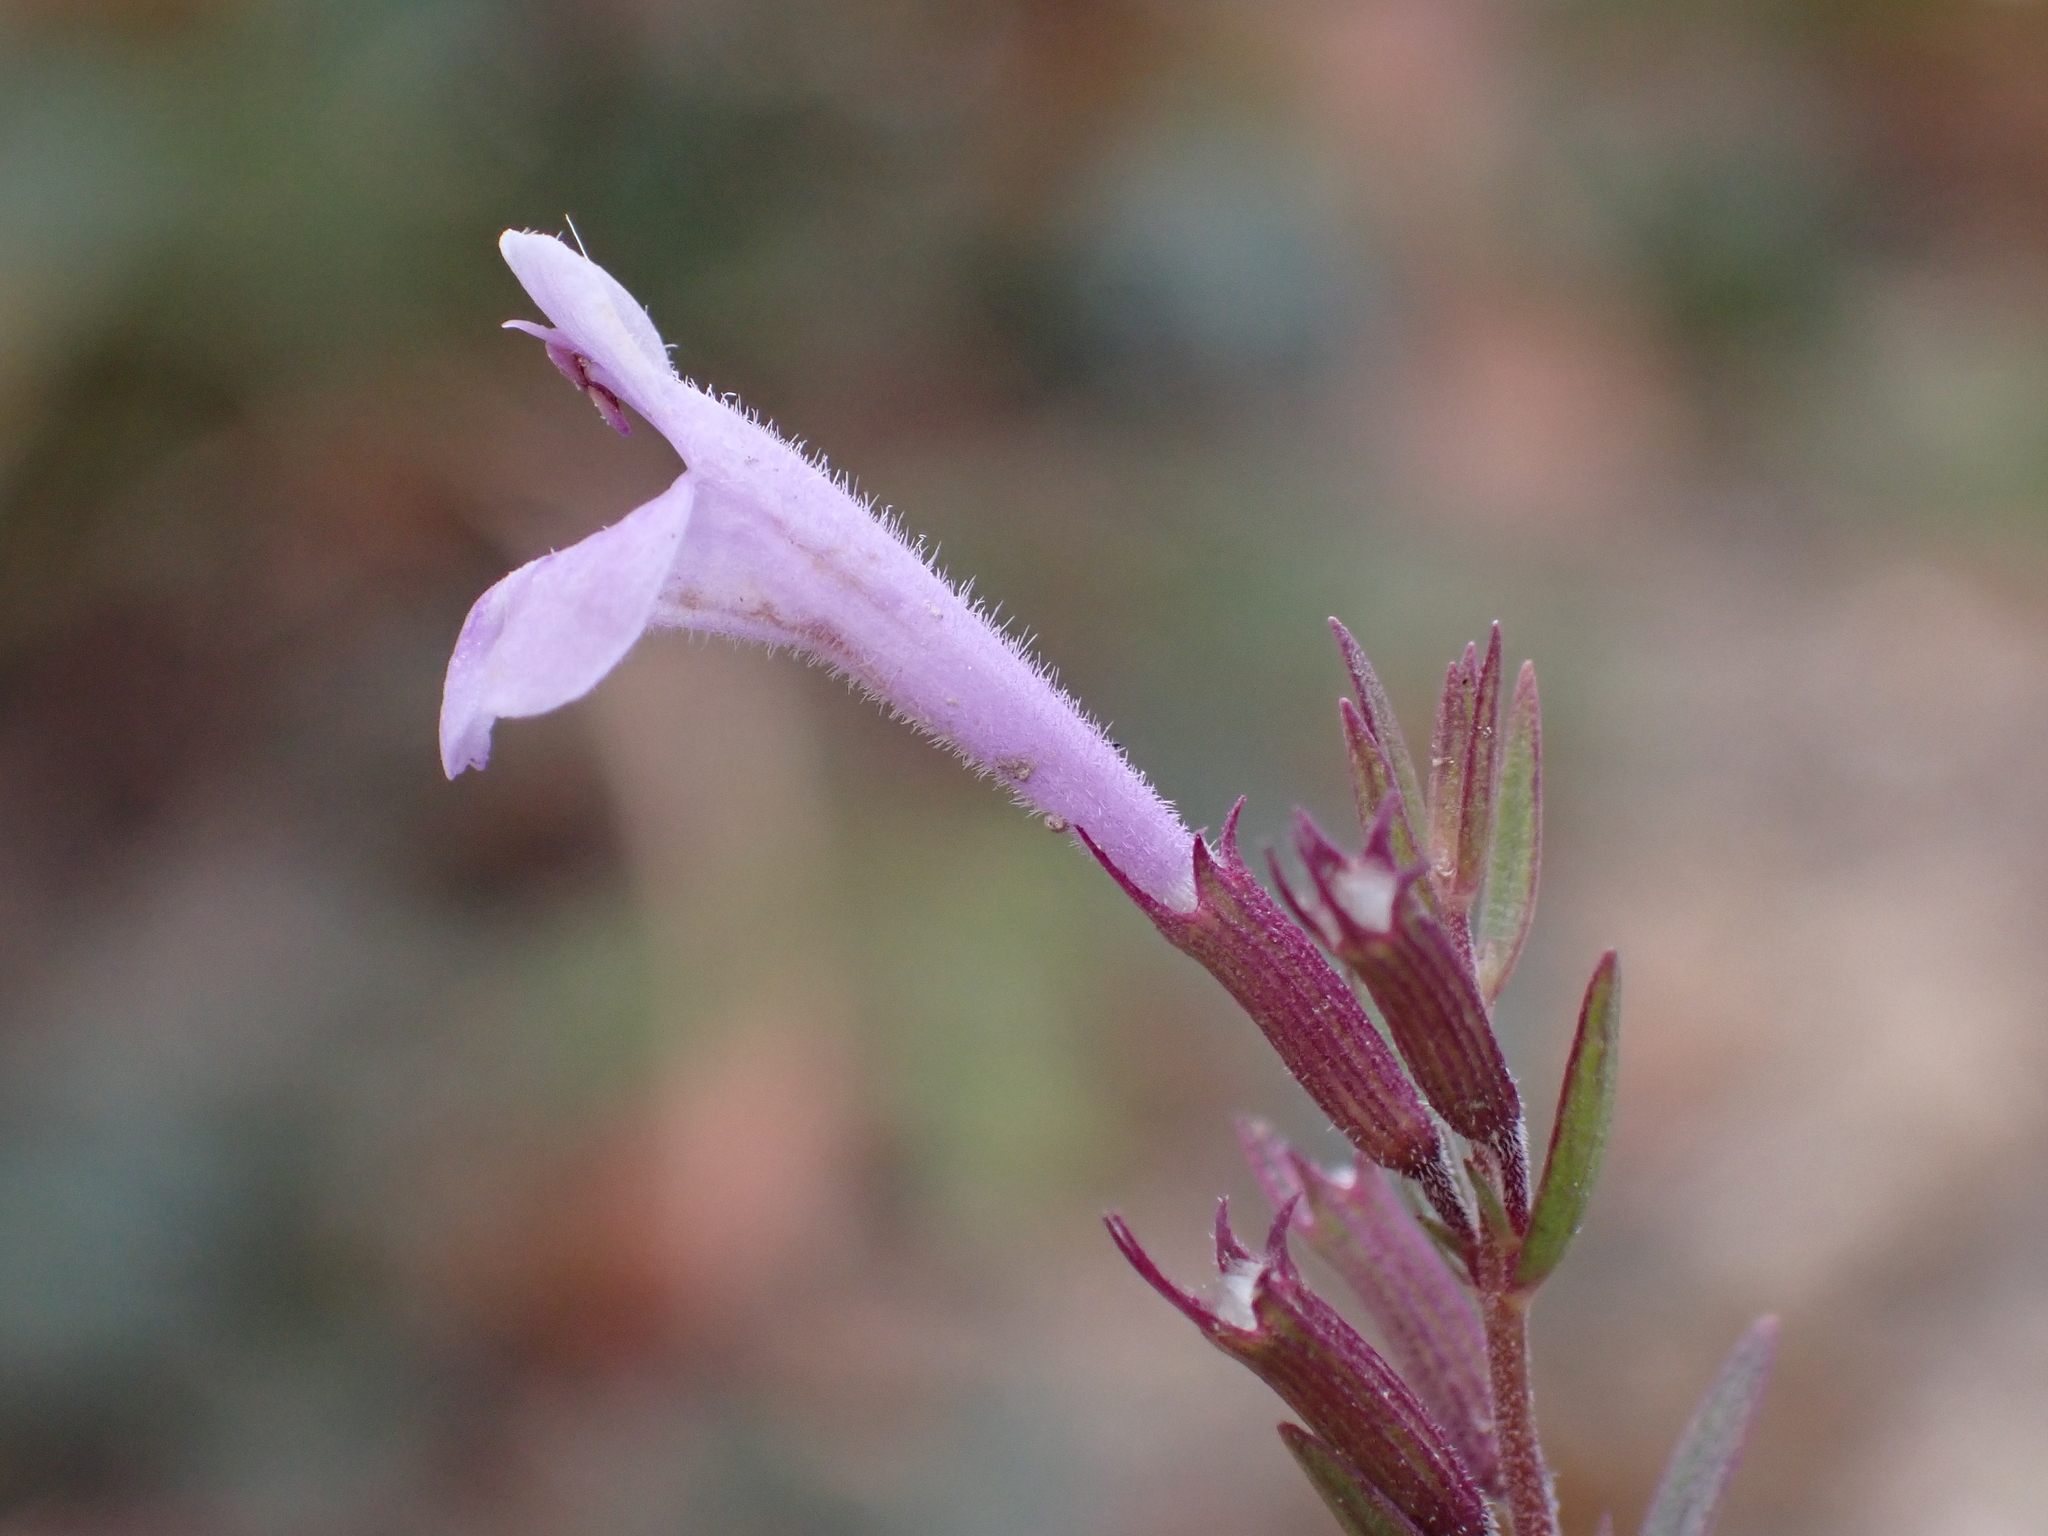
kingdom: Plantae
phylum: Tracheophyta
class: Magnoliopsida
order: Lamiales
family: Lamiaceae
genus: Hedeoma
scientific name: Hedeoma hyssopifolia
